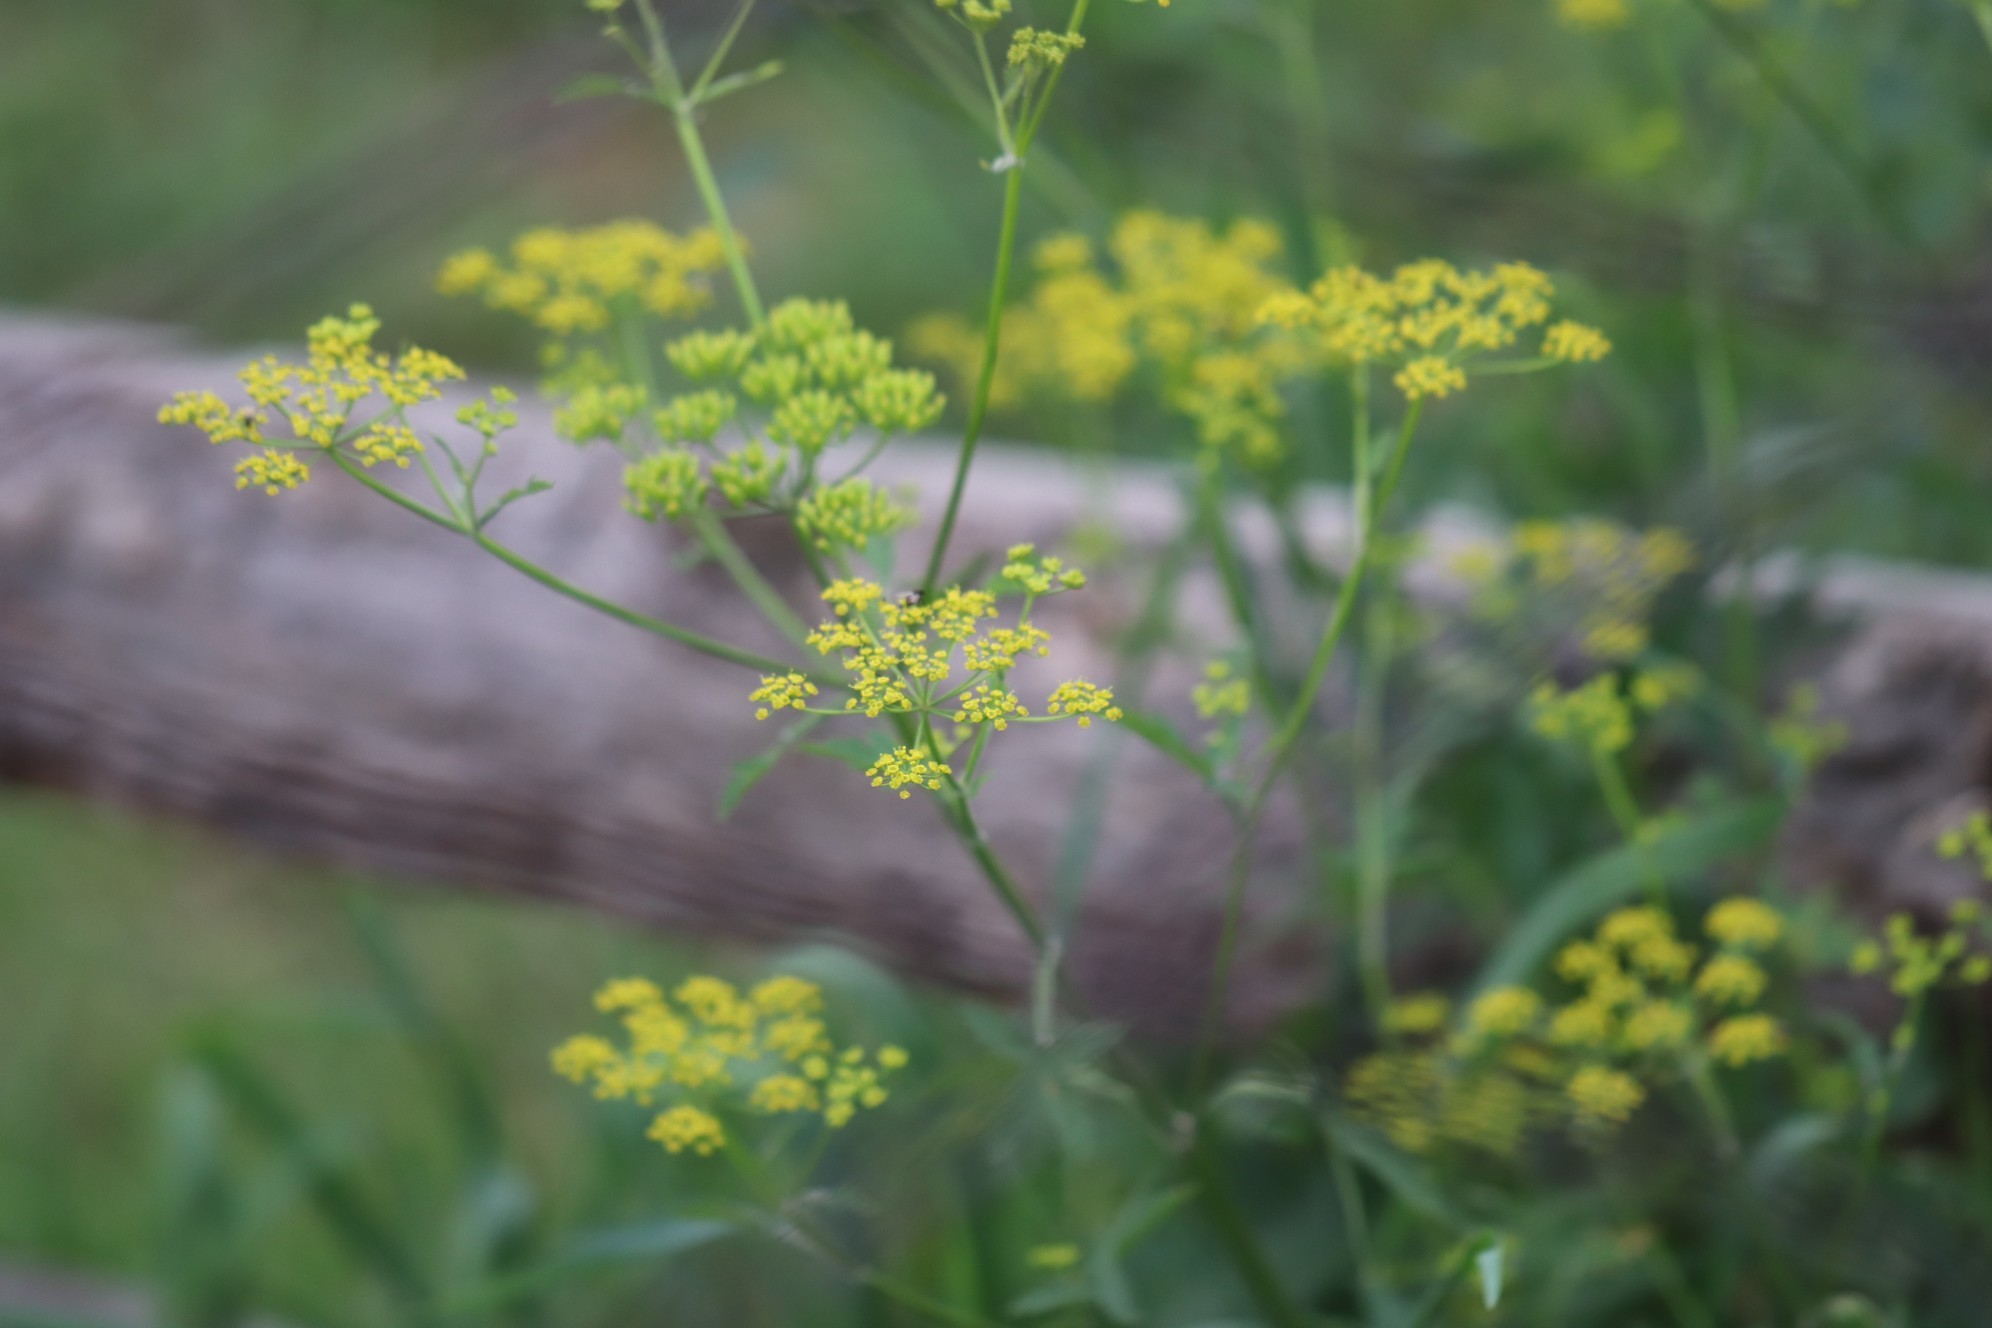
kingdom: Plantae
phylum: Tracheophyta
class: Magnoliopsida
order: Apiales
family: Apiaceae
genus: Pastinaca
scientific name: Pastinaca sativa
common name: Wild parsnip
